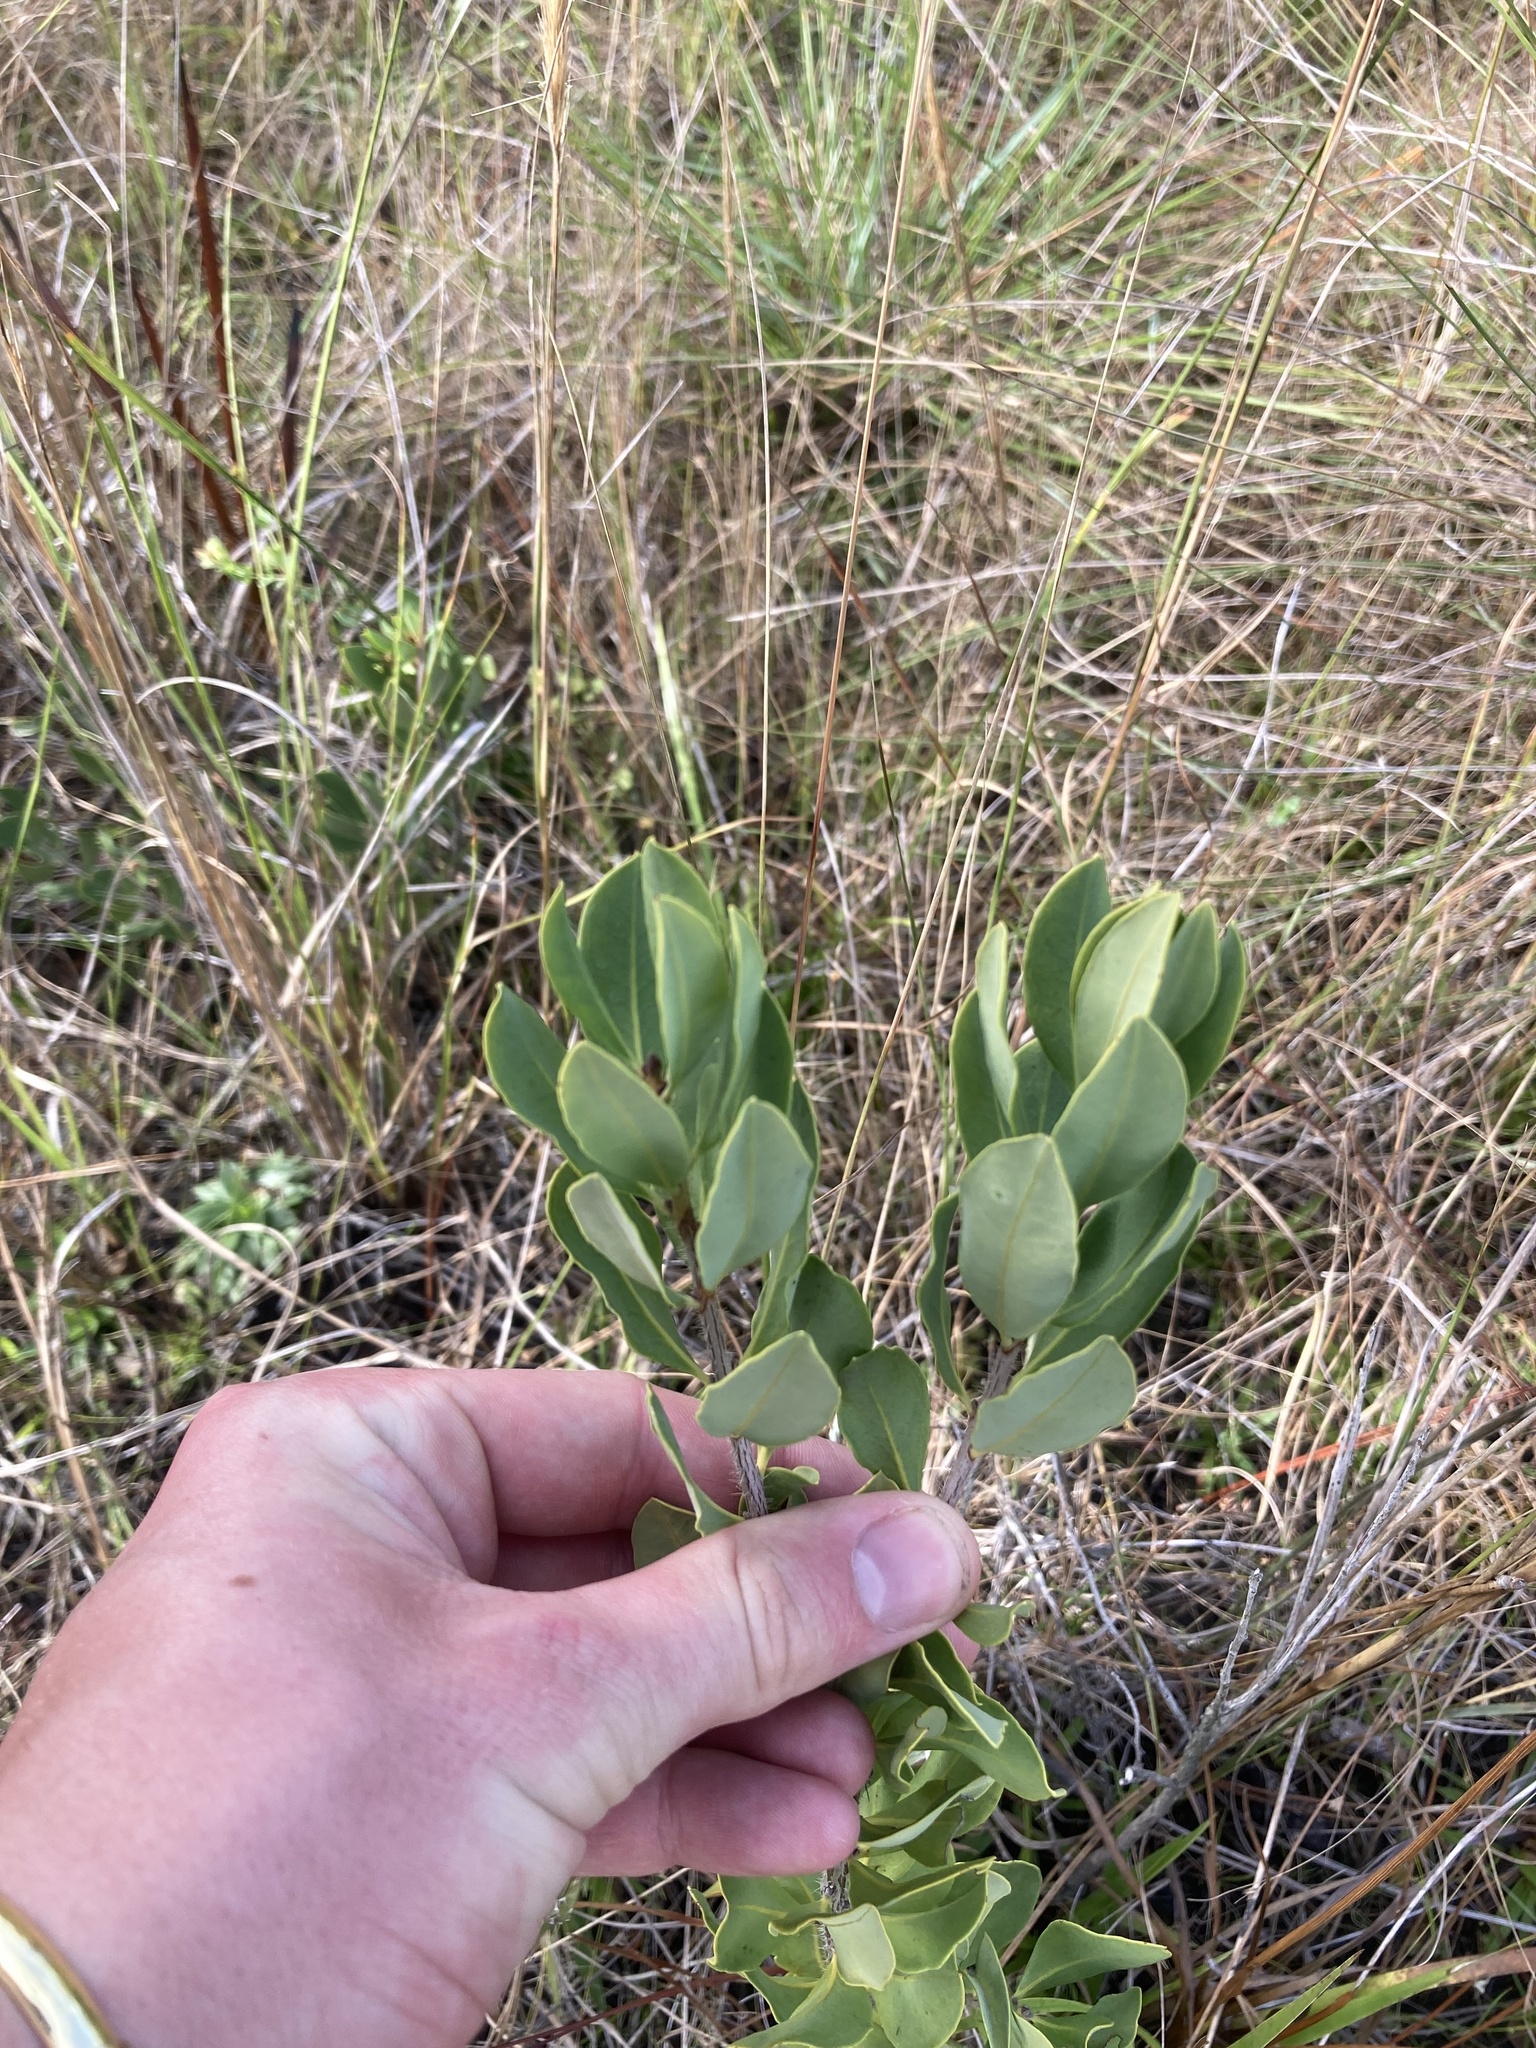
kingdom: Plantae
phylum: Tracheophyta
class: Magnoliopsida
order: Ericales
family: Ericaceae
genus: Bejaria
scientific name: Bejaria racemosa
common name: Tarflower
